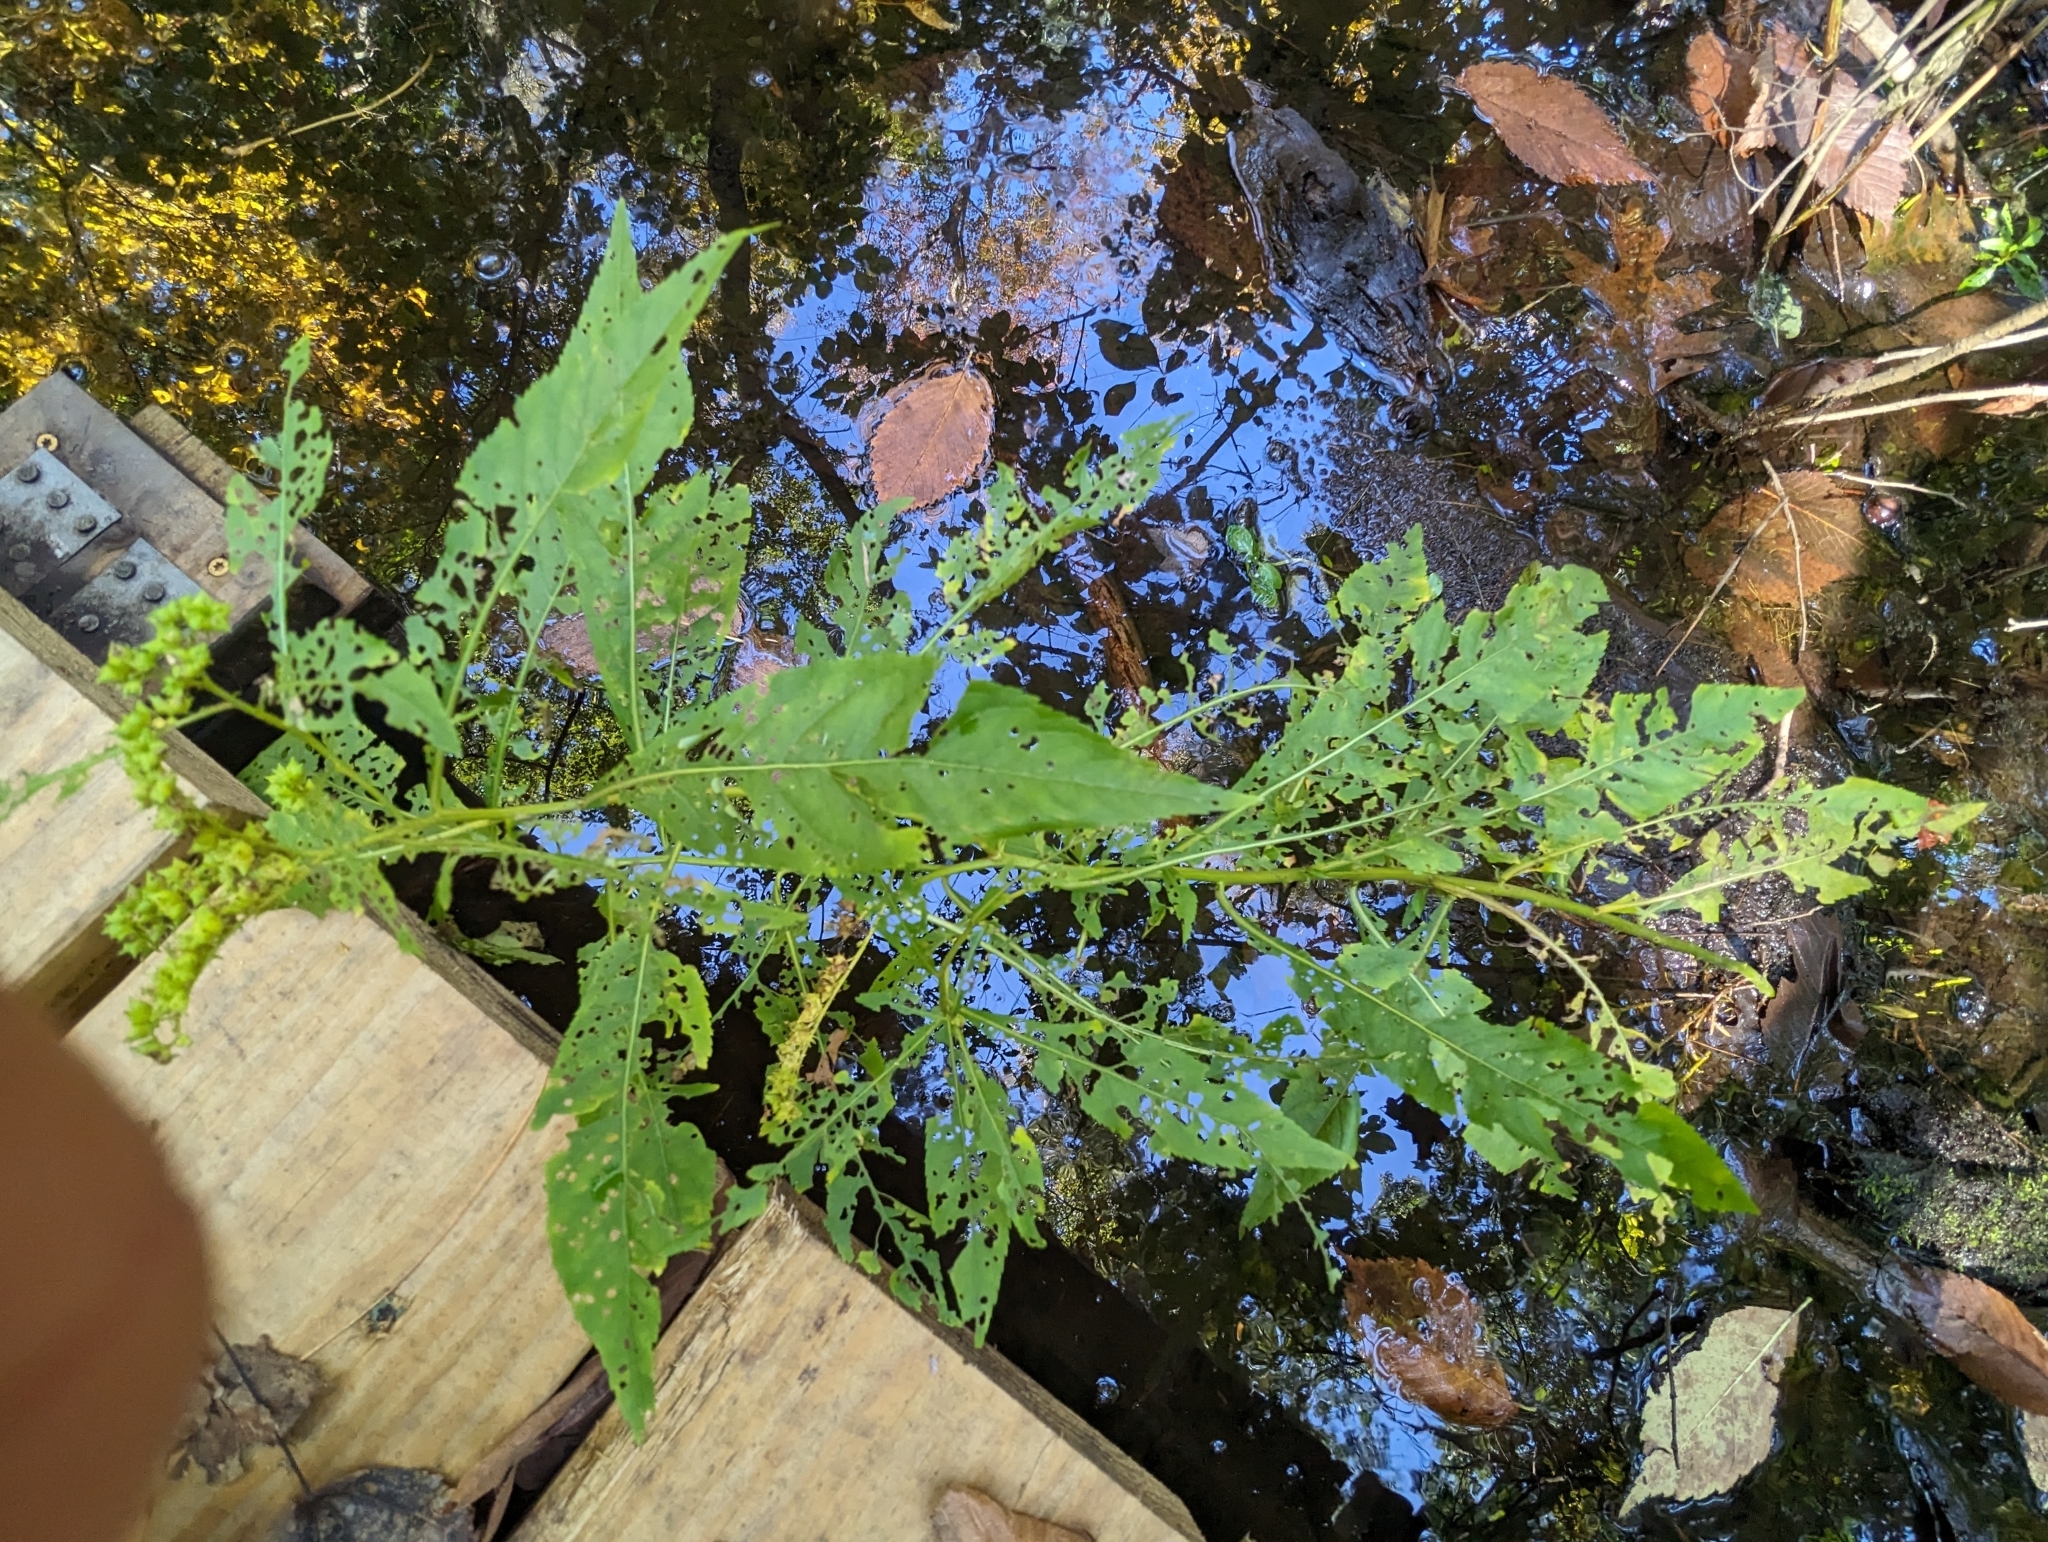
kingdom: Plantae
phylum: Tracheophyta
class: Magnoliopsida
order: Saxifragales
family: Penthoraceae
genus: Penthorum
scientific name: Penthorum sedoides
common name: Ditch stonecrop
